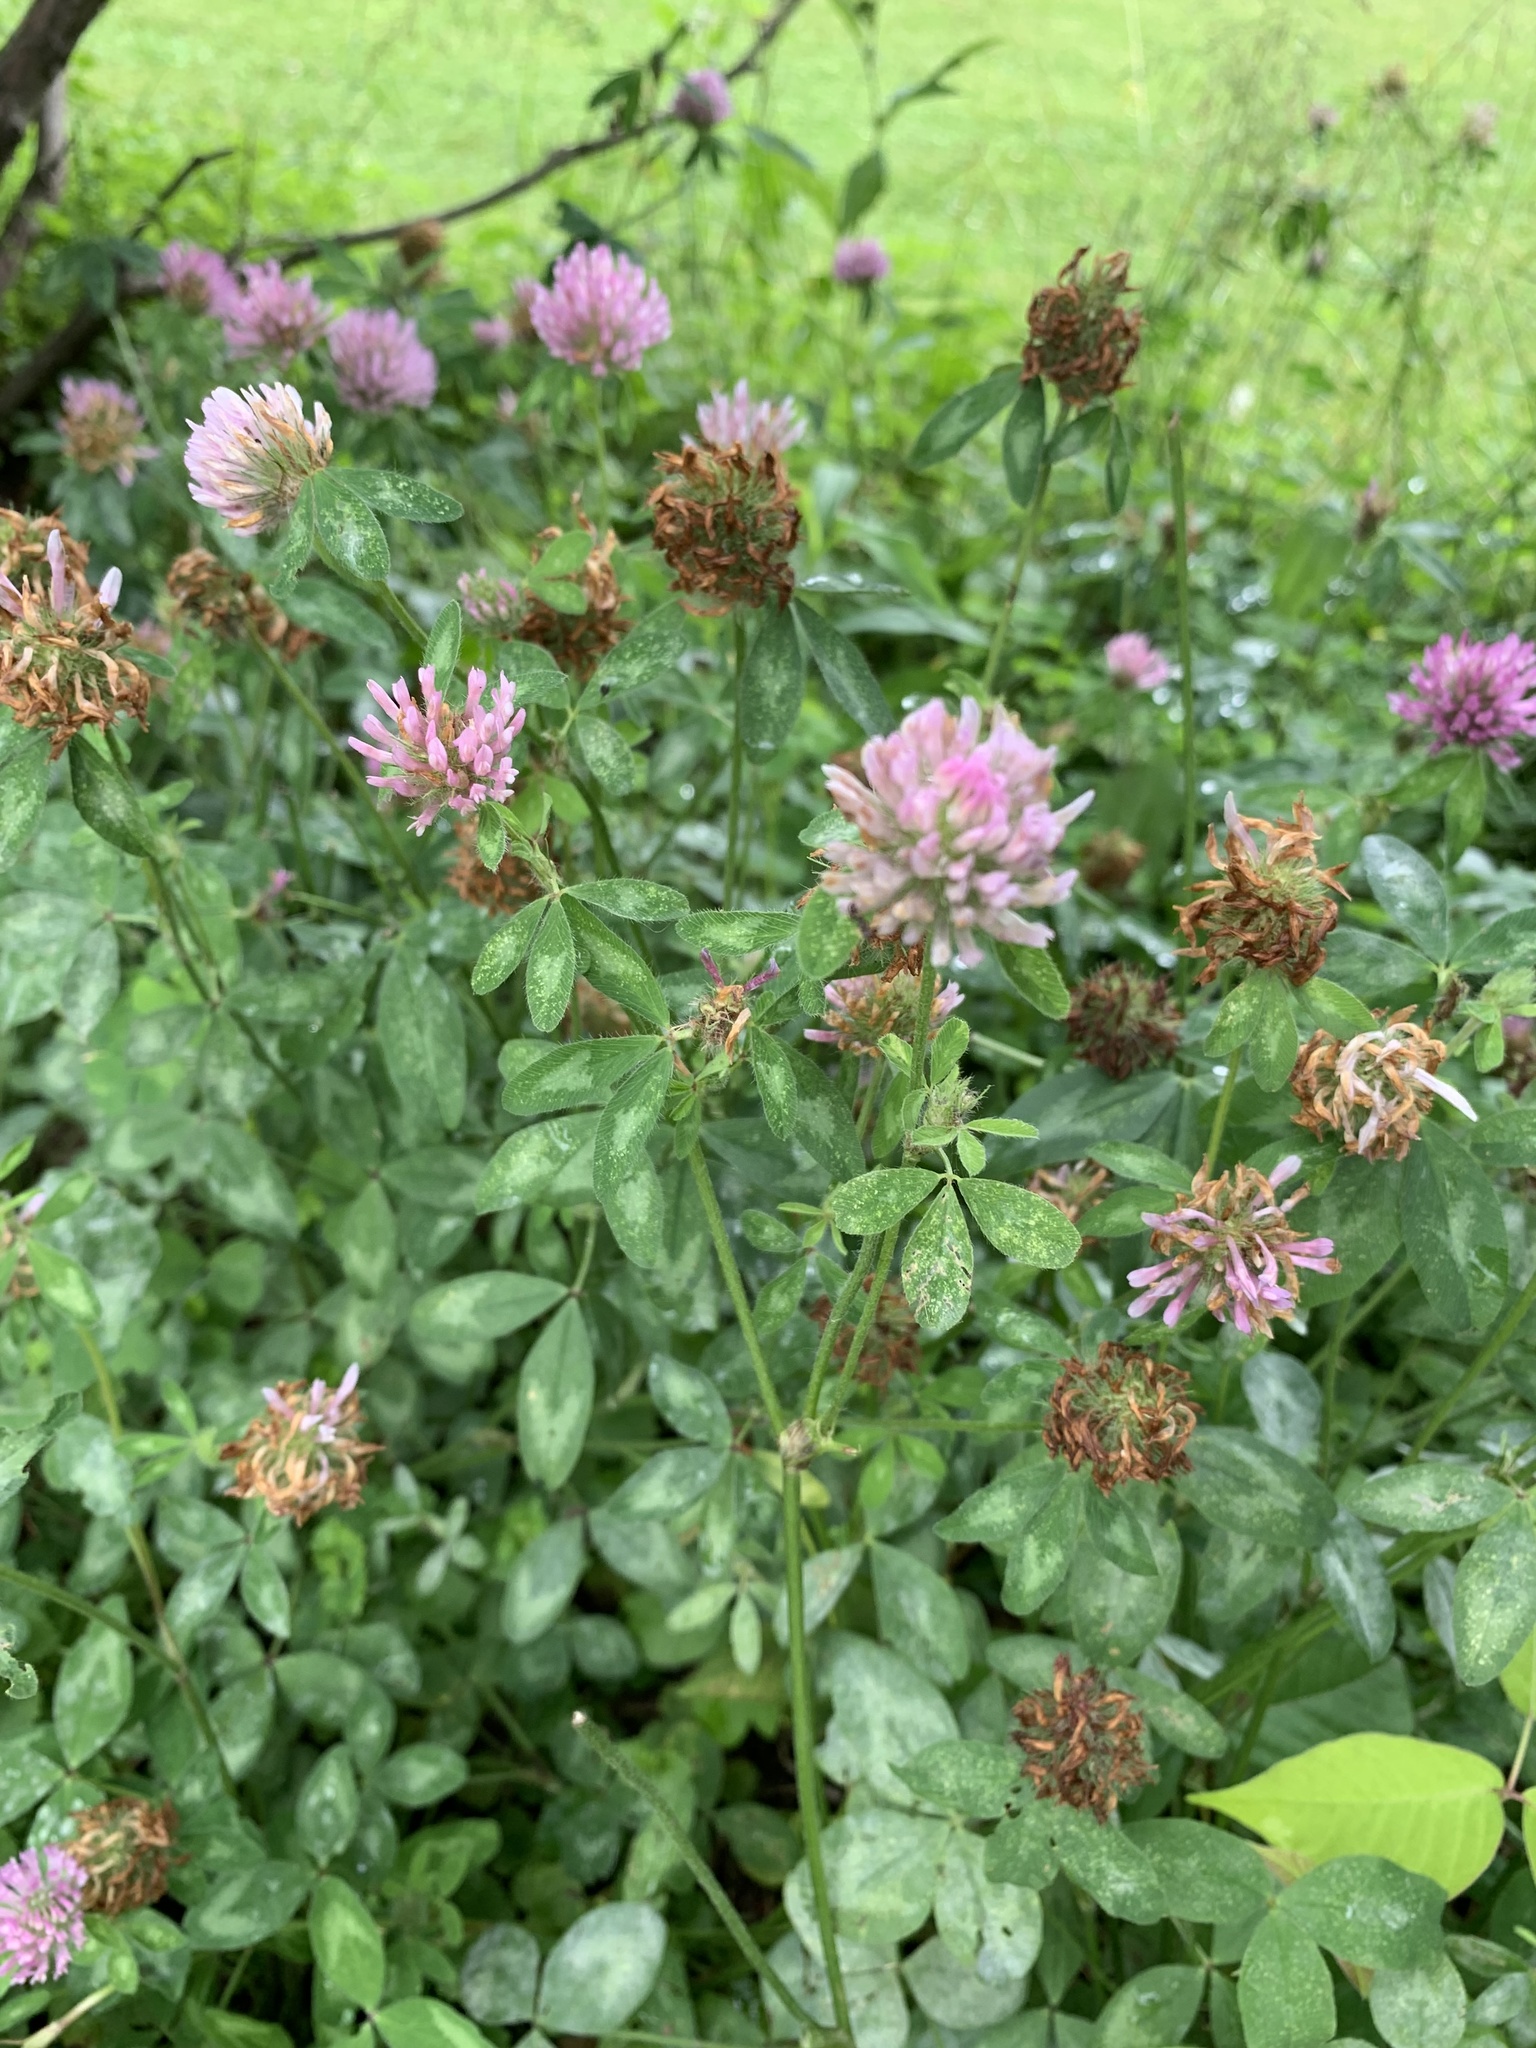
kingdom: Plantae
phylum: Tracheophyta
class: Magnoliopsida
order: Fabales
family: Fabaceae
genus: Trifolium
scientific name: Trifolium pratense
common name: Red clover
